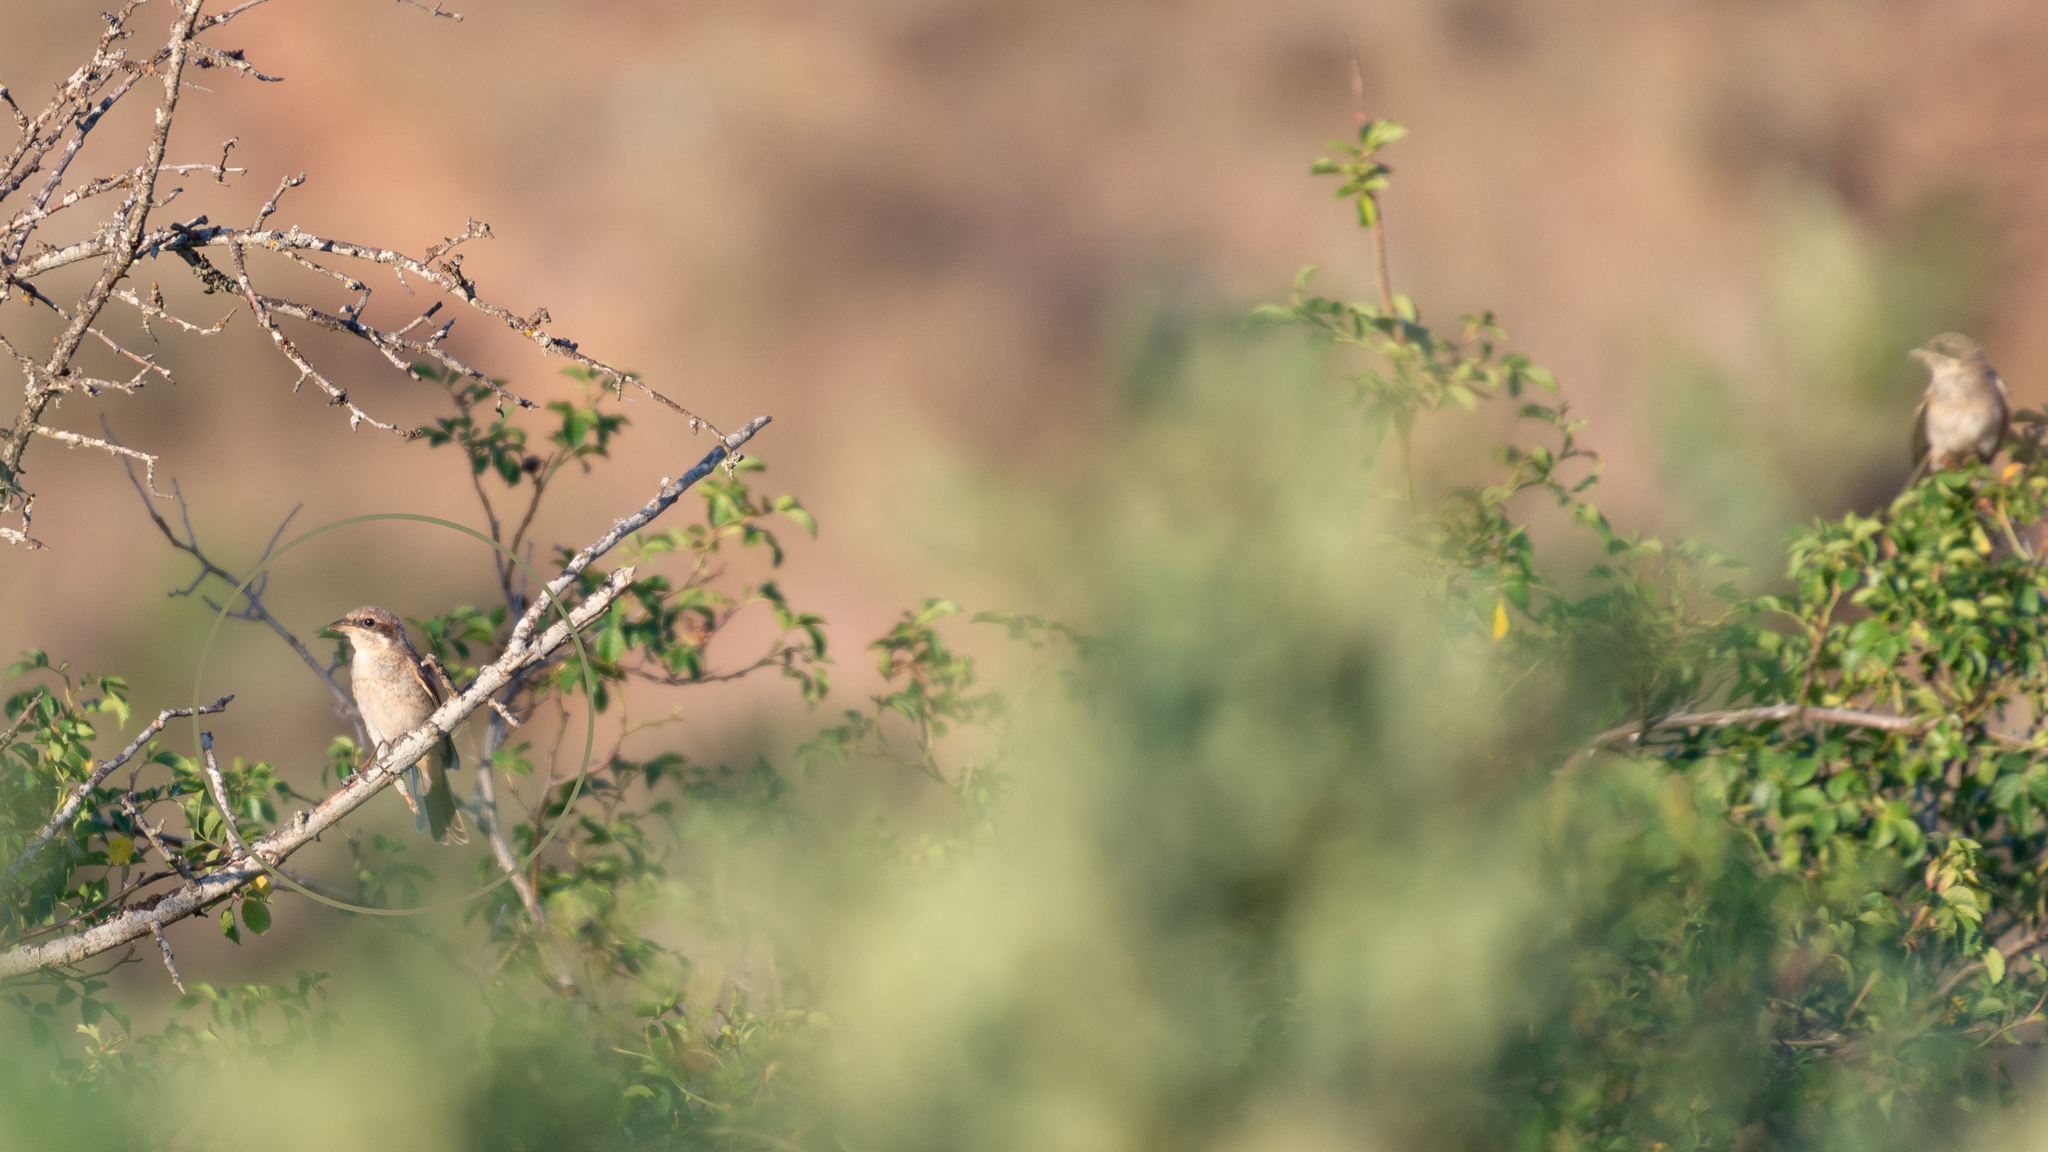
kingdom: Animalia
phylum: Chordata
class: Aves
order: Passeriformes
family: Laniidae
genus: Lanius
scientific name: Lanius collurio
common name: Red-backed shrike
